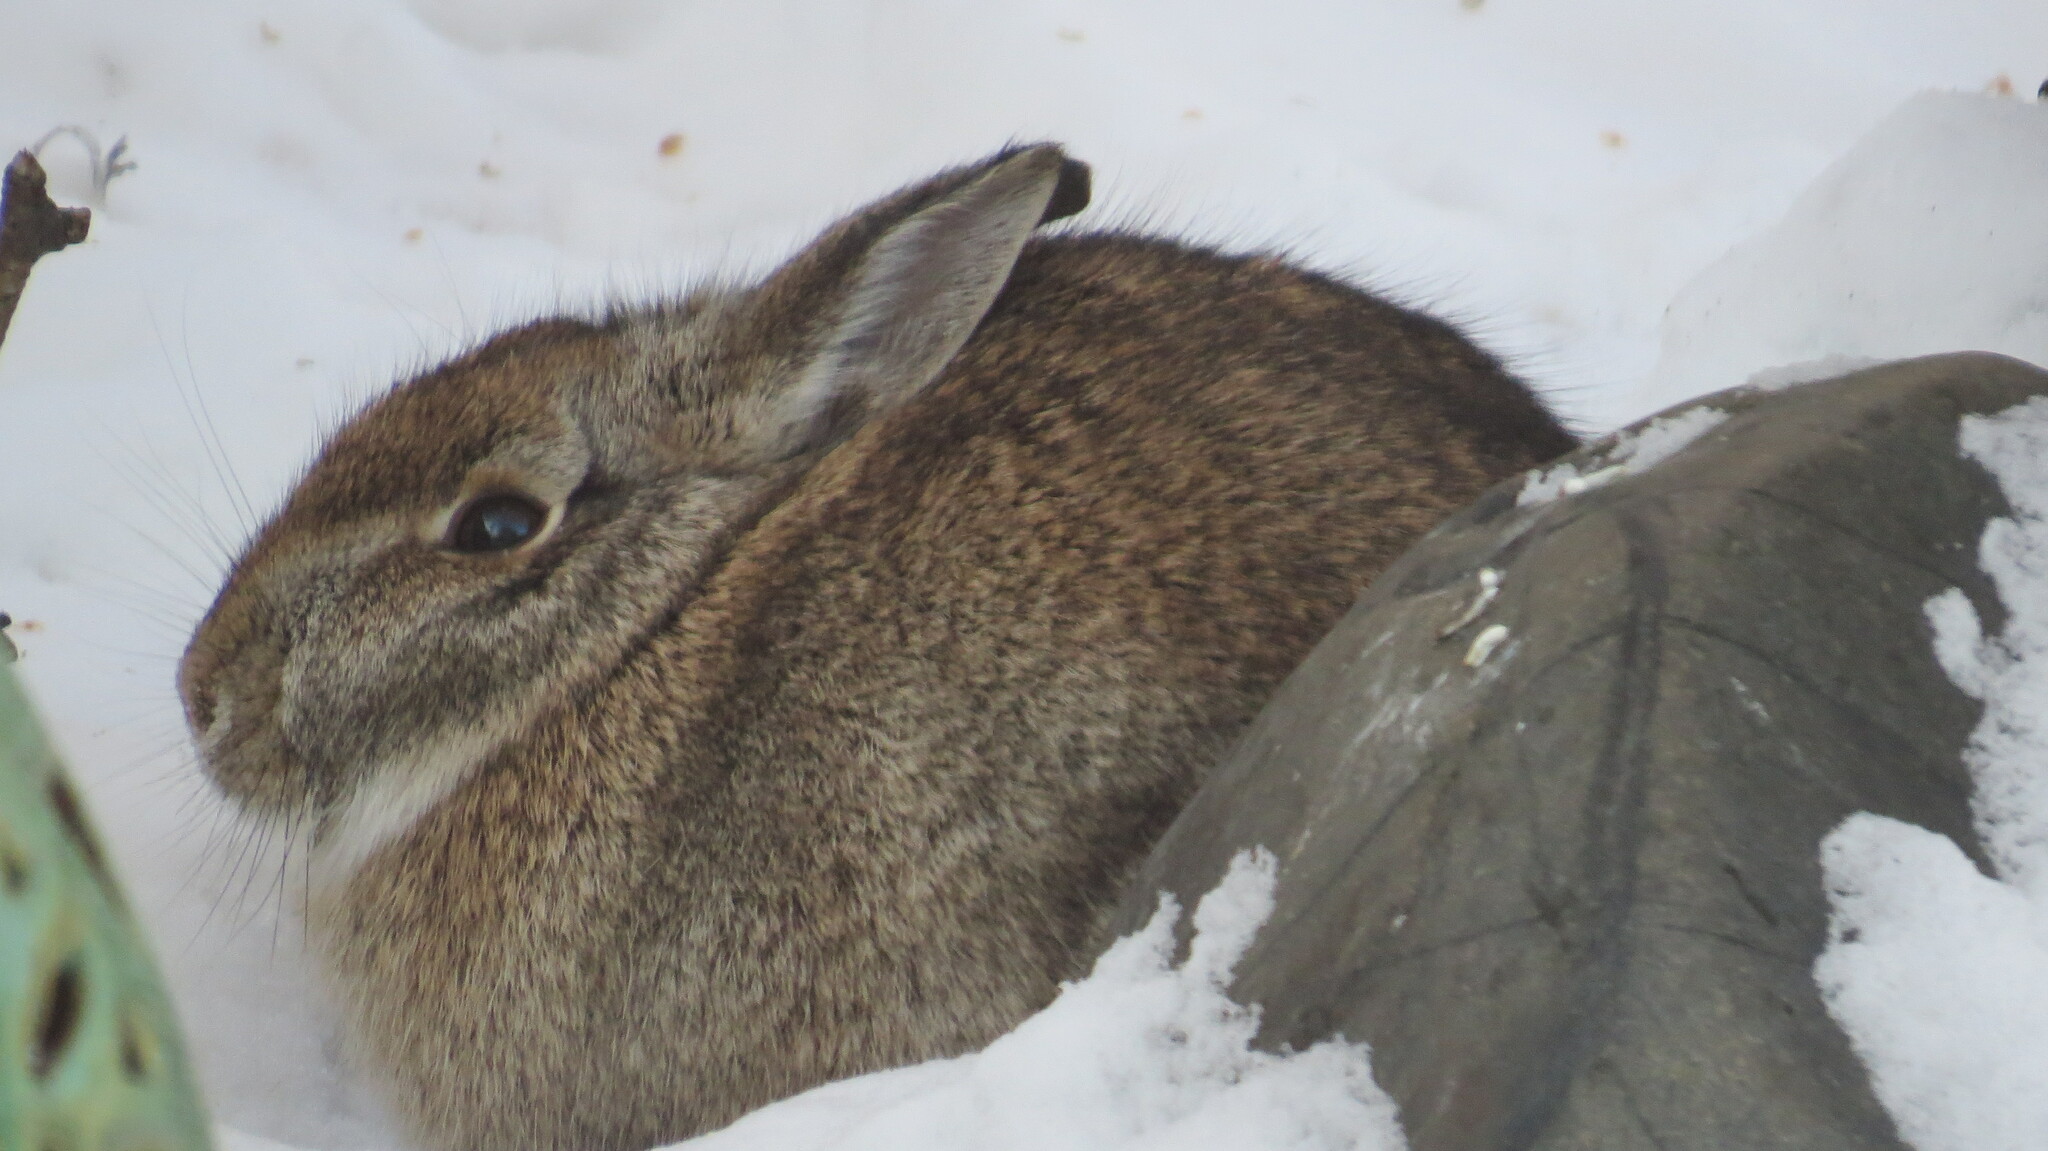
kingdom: Animalia
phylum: Chordata
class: Mammalia
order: Lagomorpha
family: Leporidae
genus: Sylvilagus
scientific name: Sylvilagus floridanus
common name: Eastern cottontail
